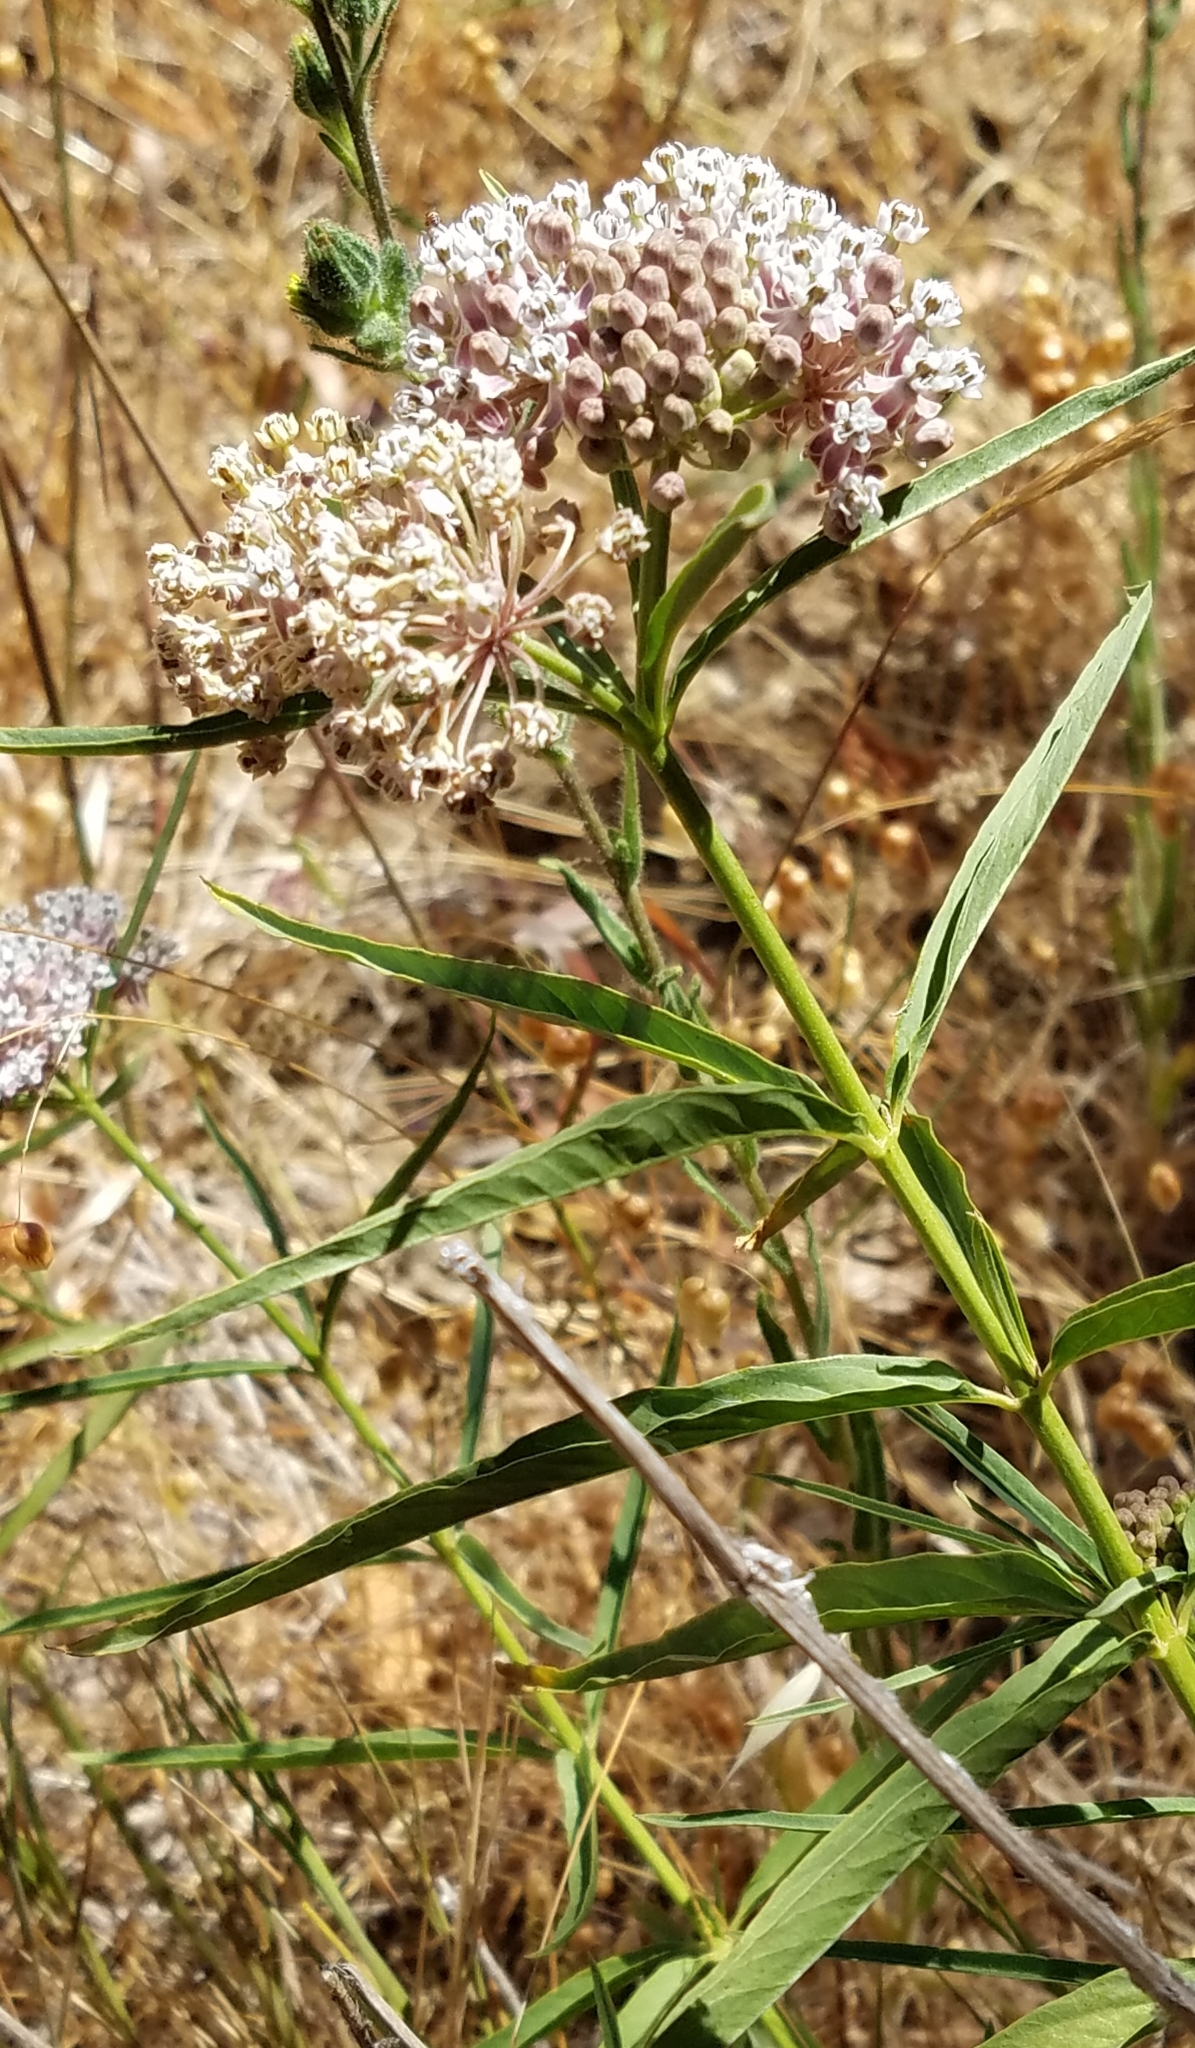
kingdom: Plantae
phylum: Tracheophyta
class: Magnoliopsida
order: Gentianales
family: Apocynaceae
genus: Asclepias
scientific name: Asclepias fascicularis
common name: Mexican milkweed
